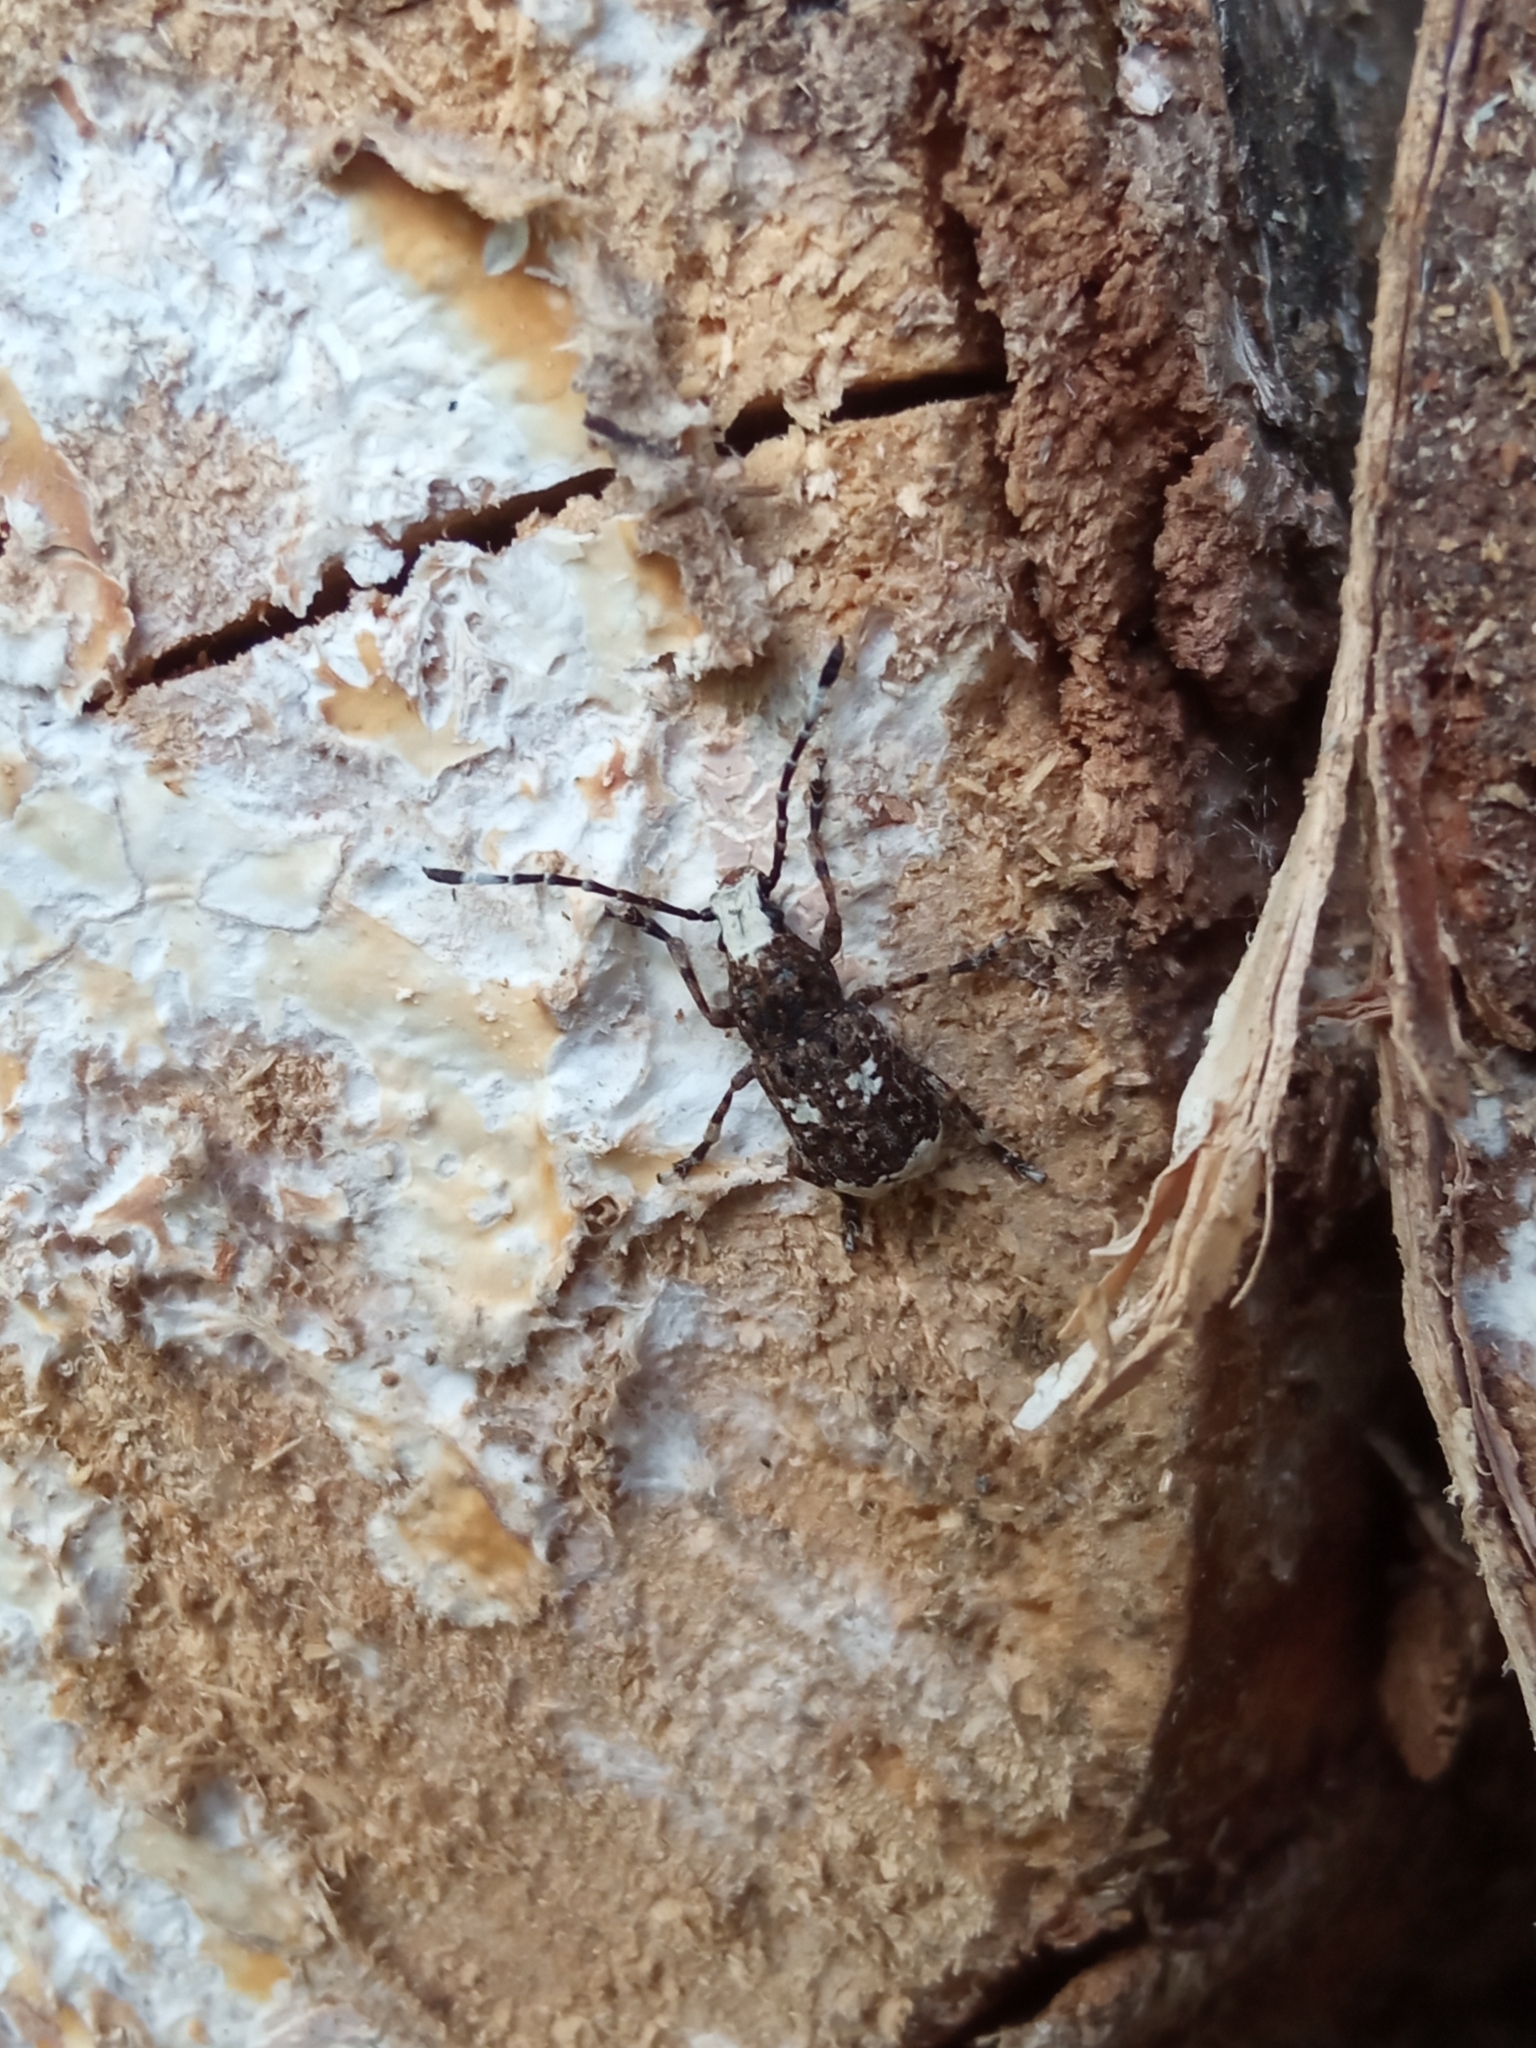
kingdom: Animalia
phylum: Arthropoda
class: Insecta
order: Coleoptera
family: Anthribidae
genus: Platystomos
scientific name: Platystomos albinus
